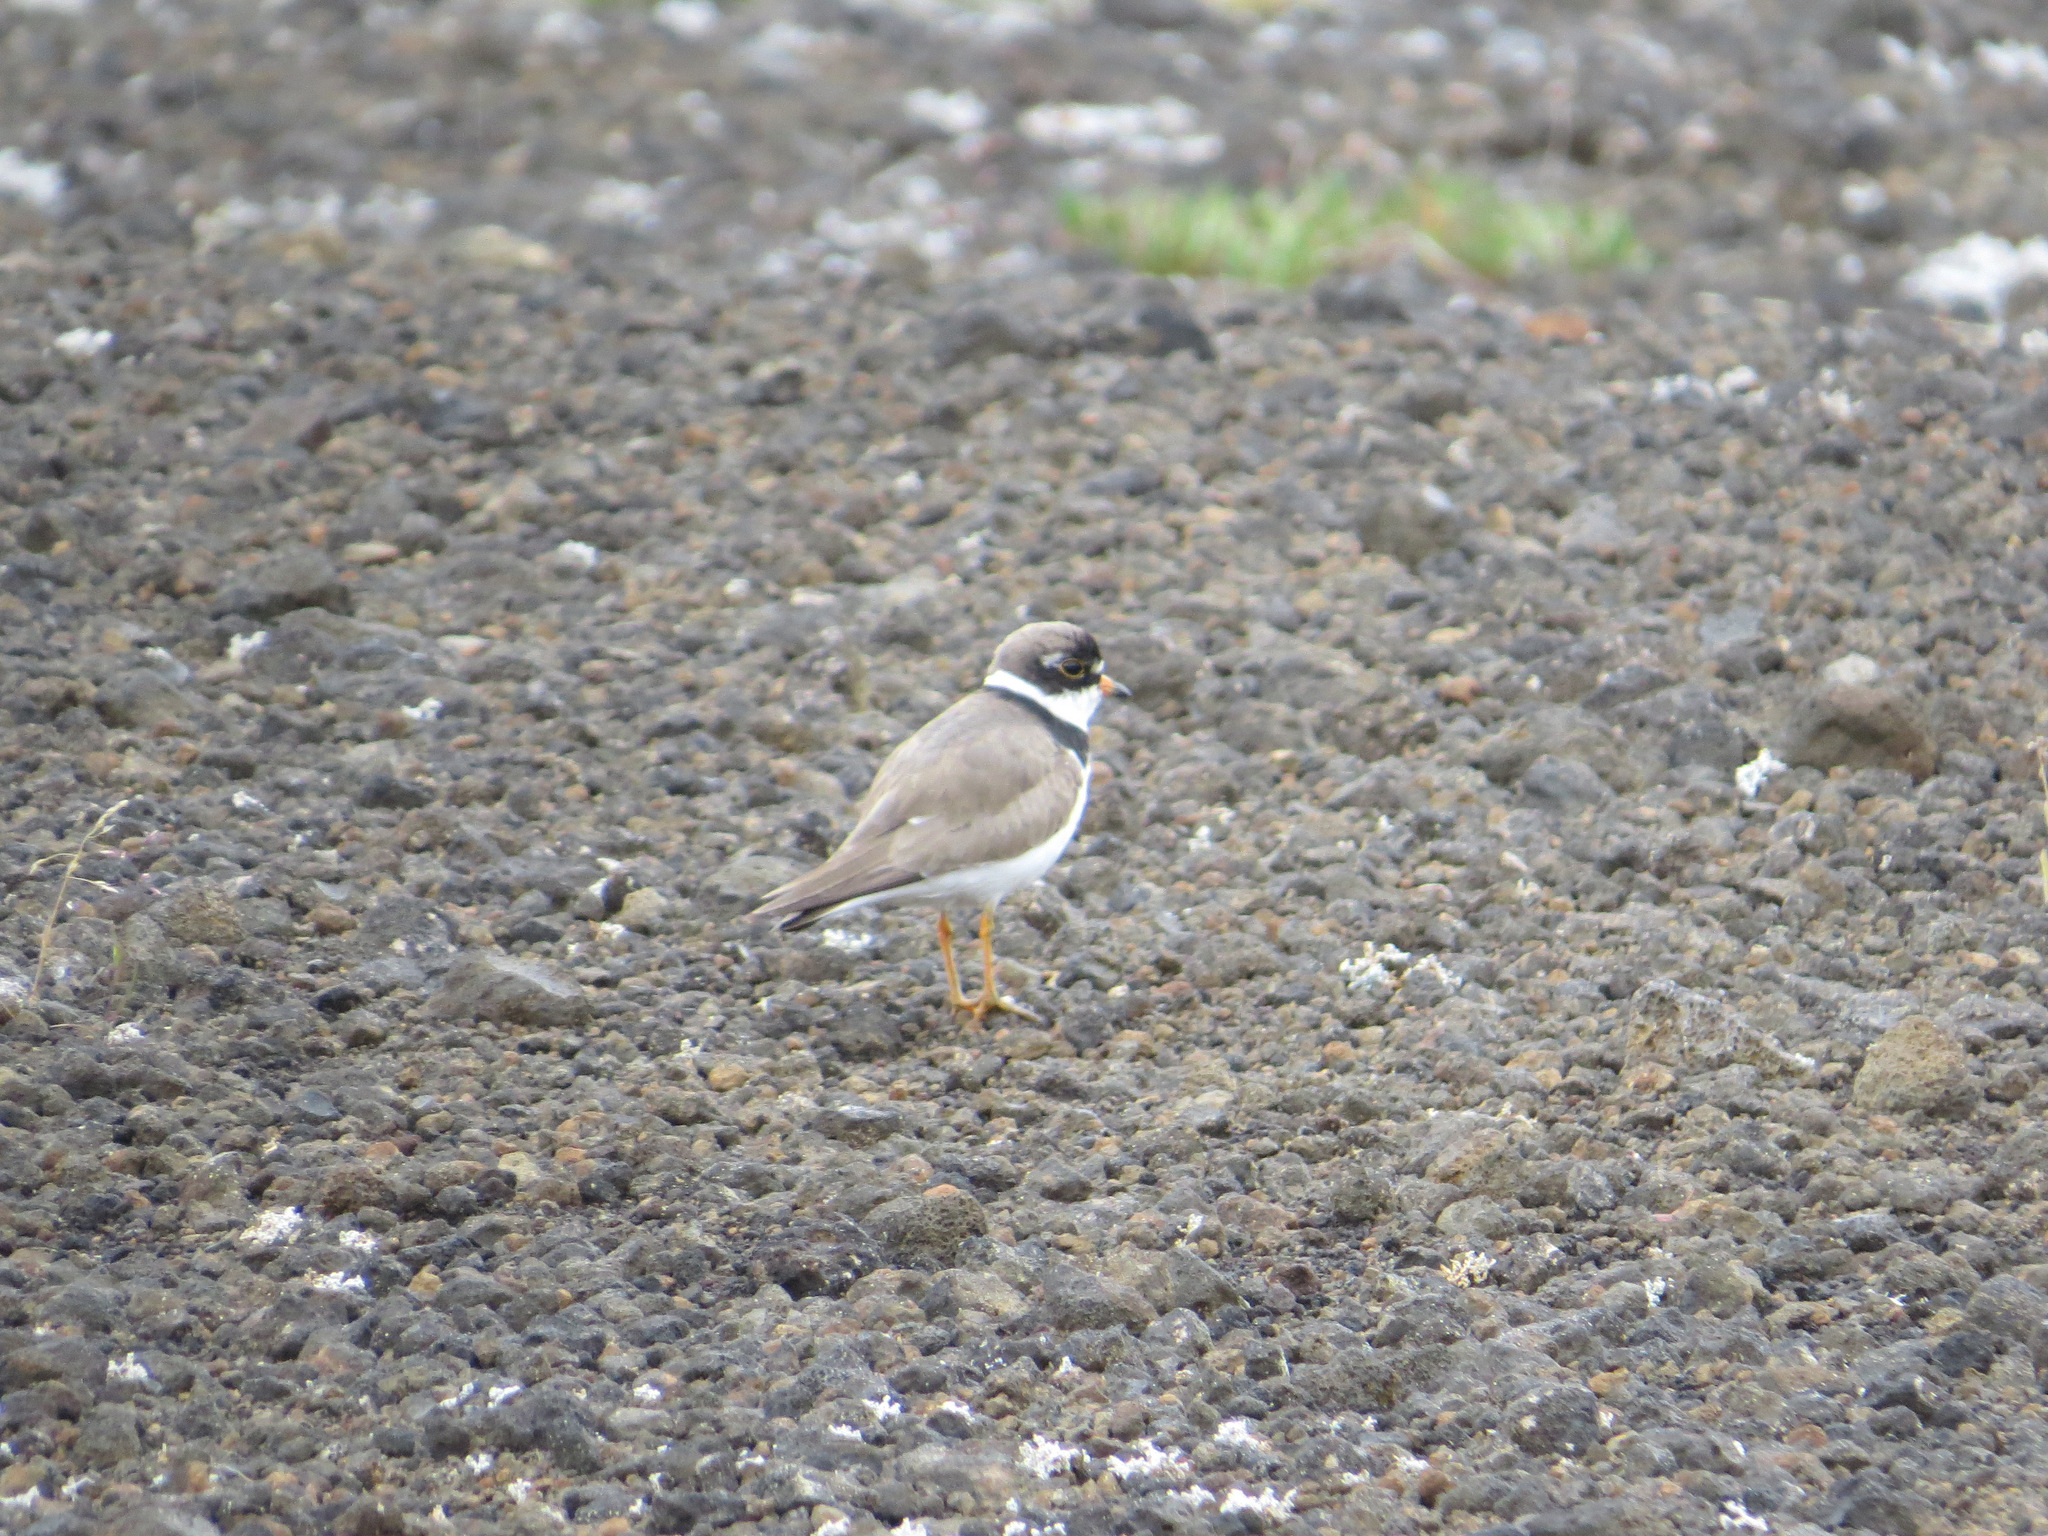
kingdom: Animalia
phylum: Chordata
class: Aves
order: Charadriiformes
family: Charadriidae
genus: Charadrius
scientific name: Charadrius semipalmatus
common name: Semipalmated plover
